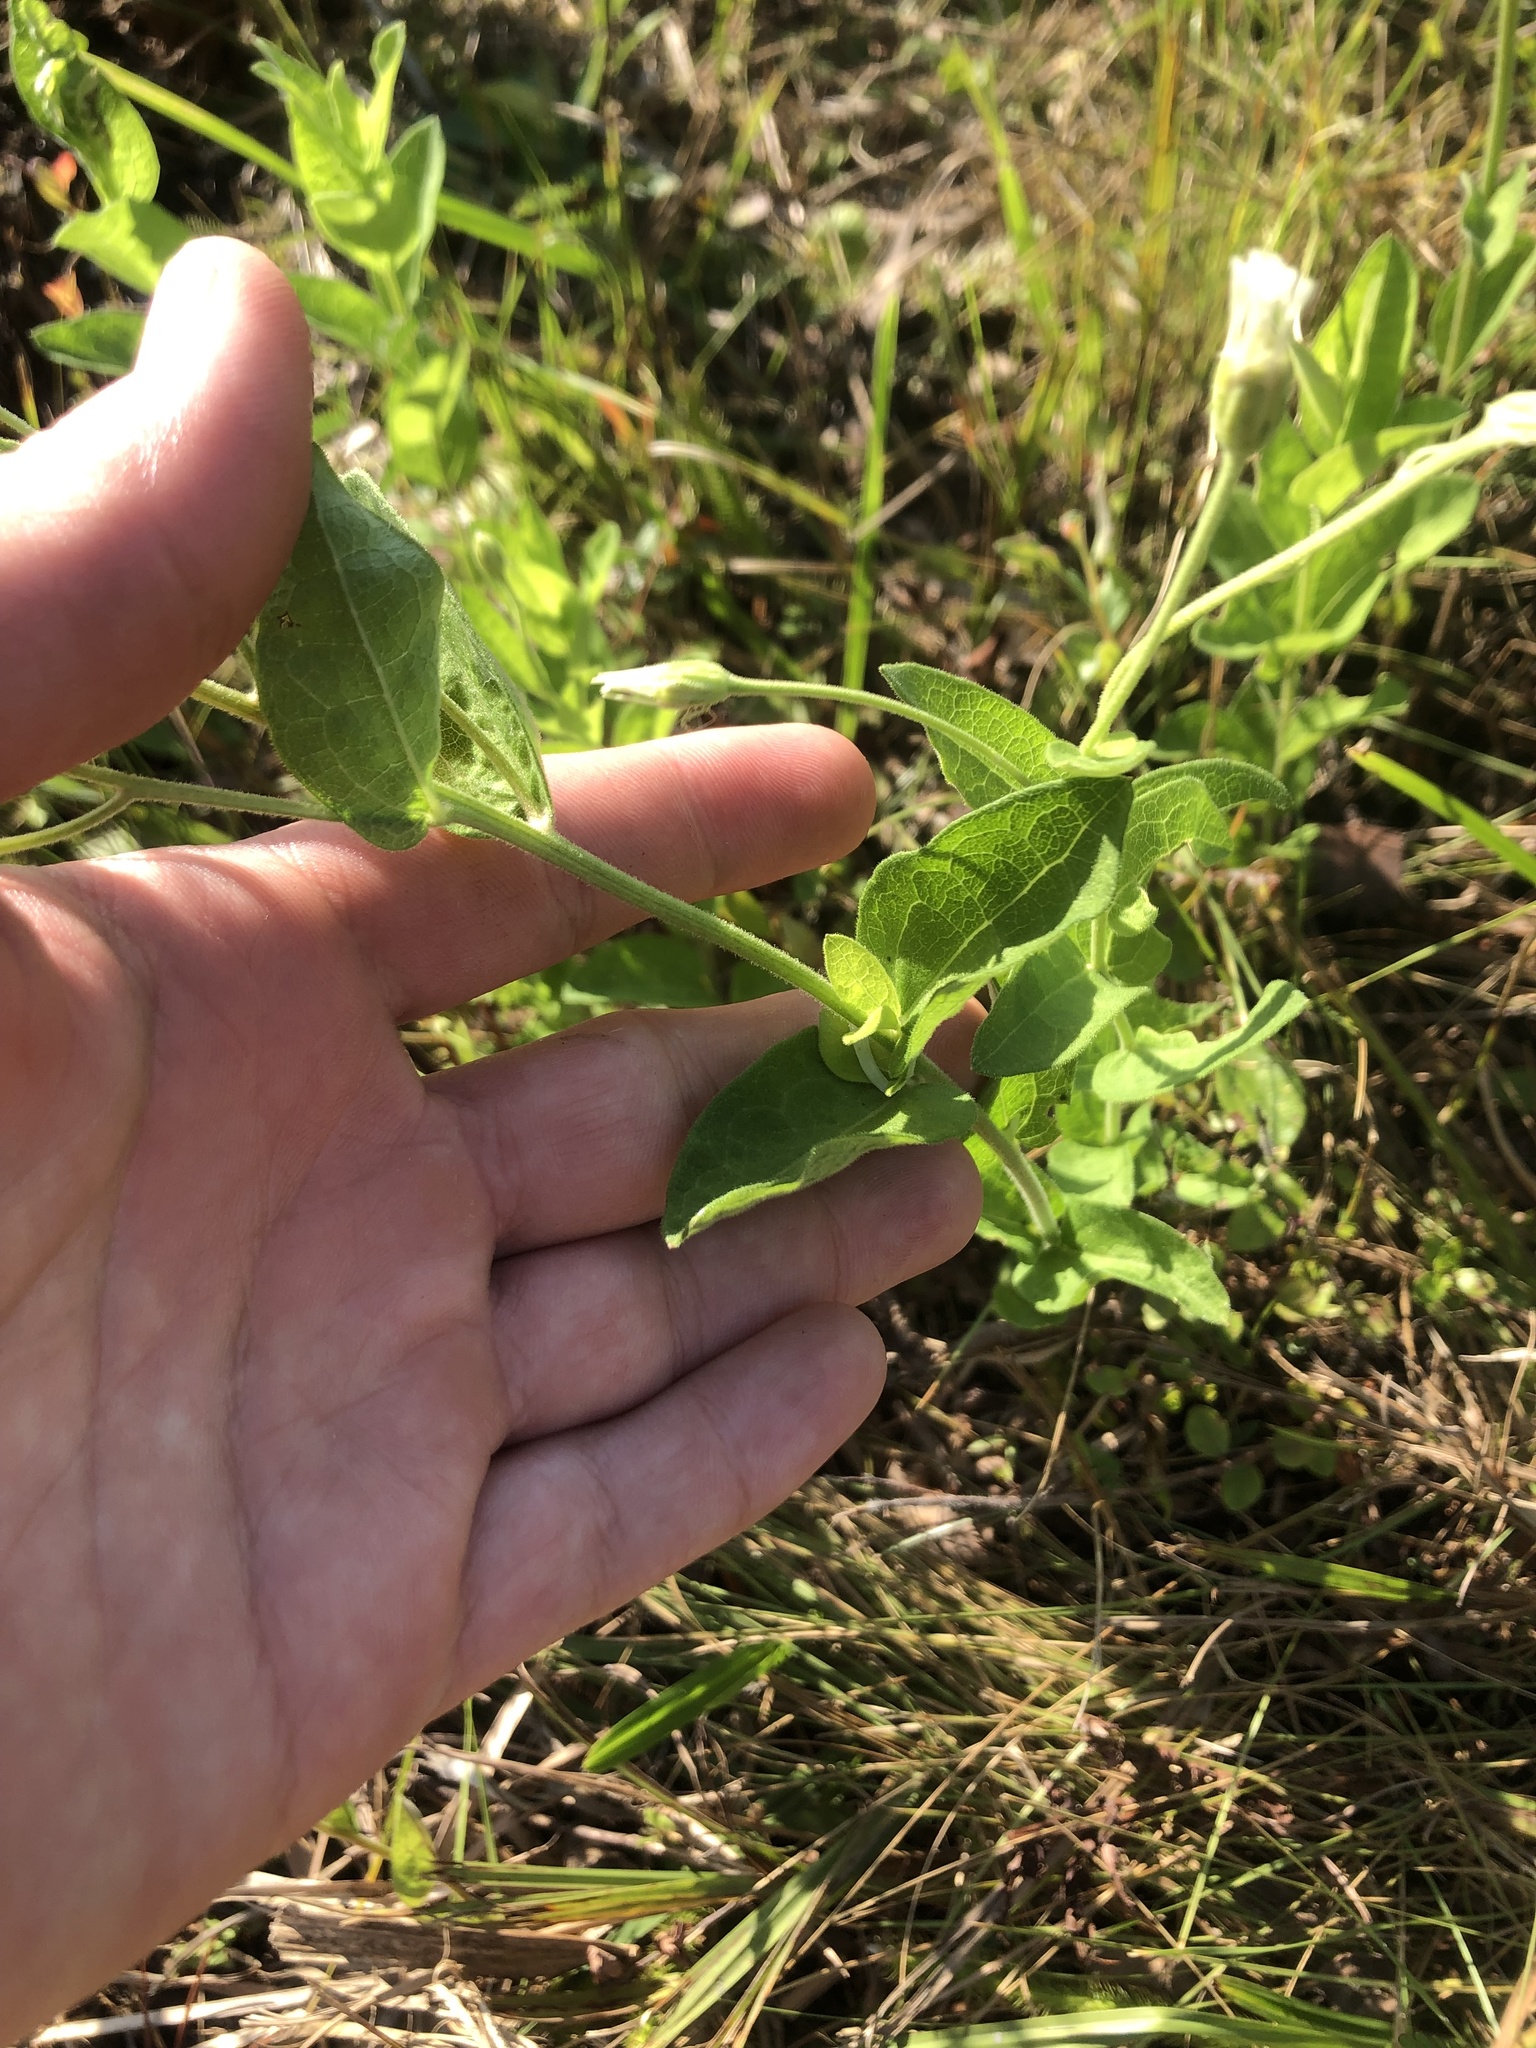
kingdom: Plantae
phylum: Tracheophyta
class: Magnoliopsida
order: Asterales
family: Asteraceae
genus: Oclemena
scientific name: Oclemena reticulata
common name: Pinebarren aster
